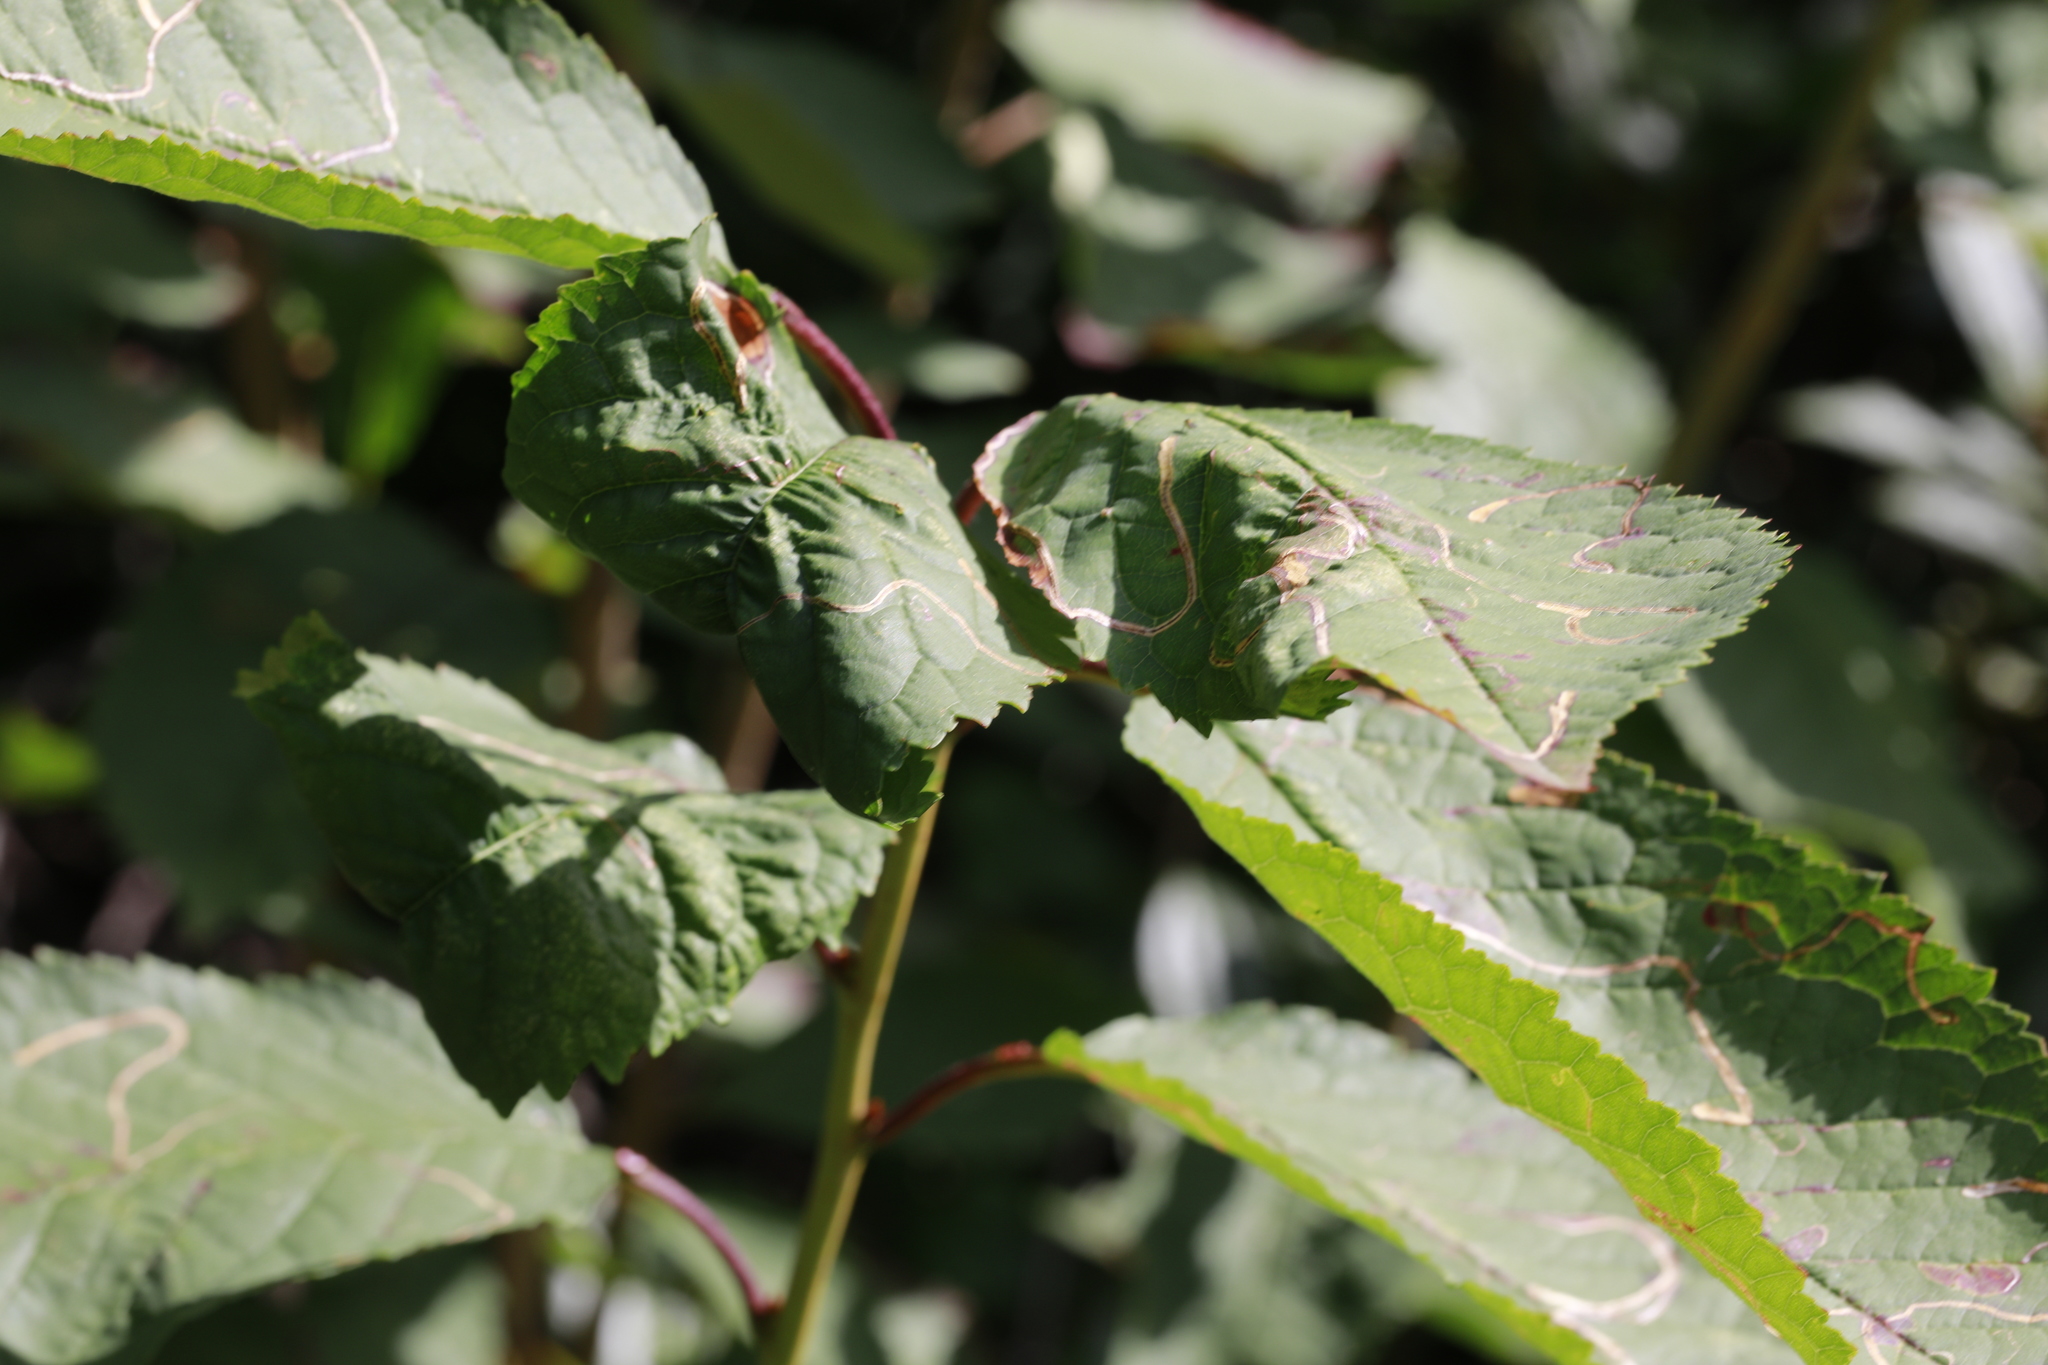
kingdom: Animalia
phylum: Arthropoda
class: Insecta
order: Hemiptera
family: Aphididae
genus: Myzus
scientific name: Myzus cerasi
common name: Black cherry aphid
